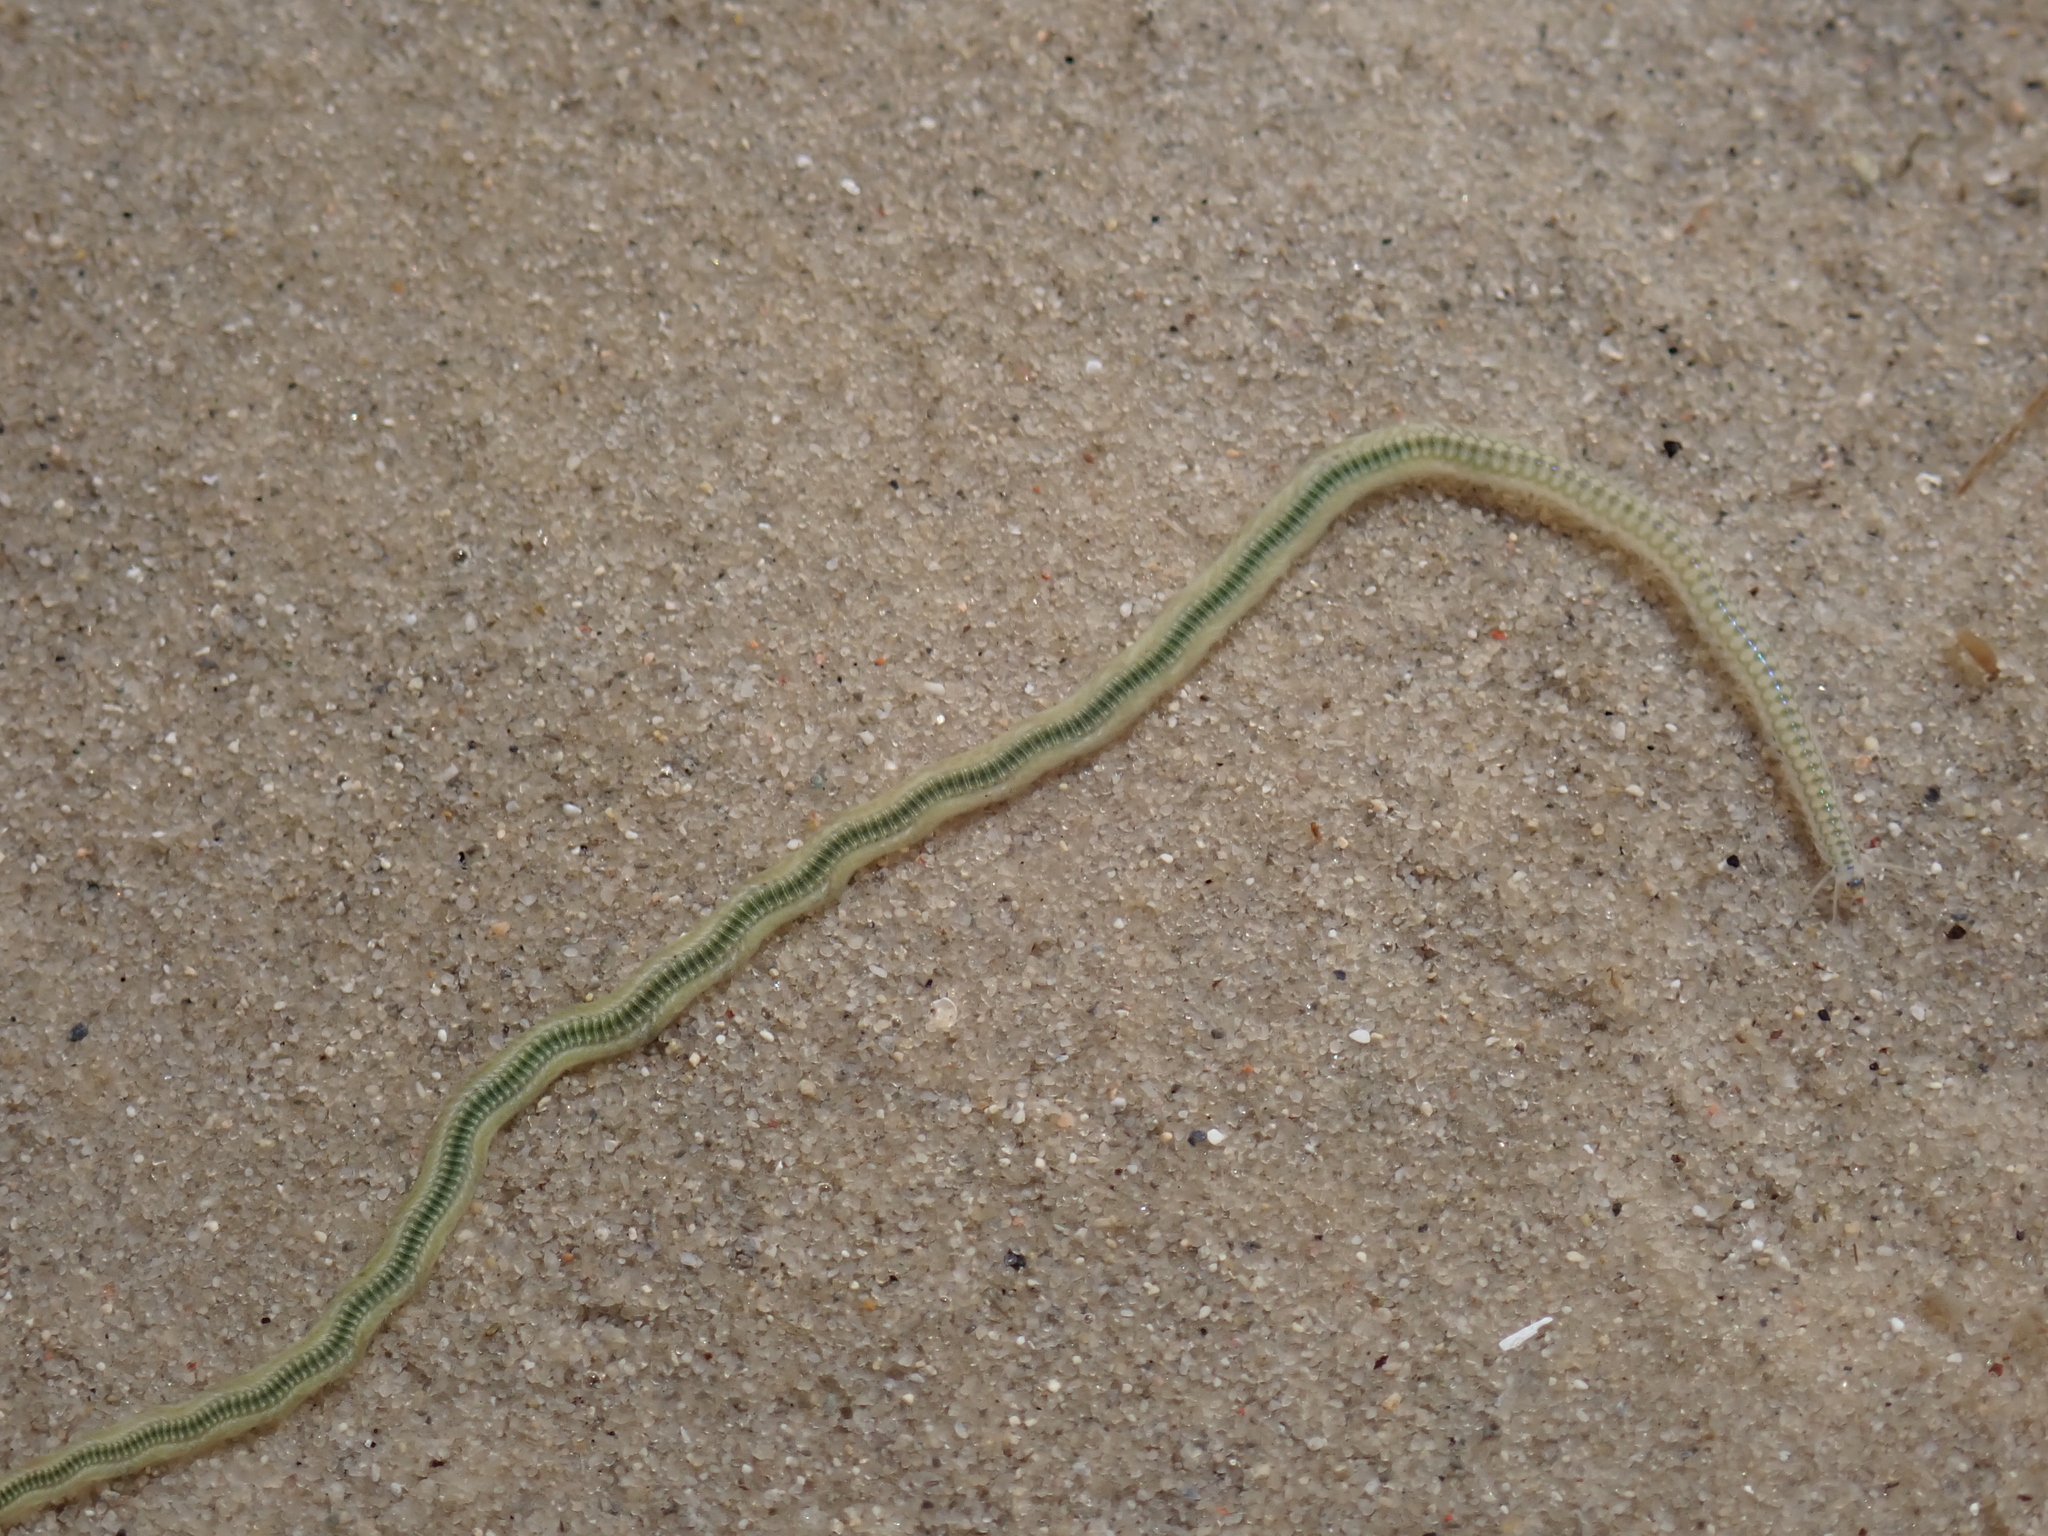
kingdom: Animalia
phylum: Annelida
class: Polychaeta
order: Phyllodocida
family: Phyllodocidae
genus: Phyllodoce
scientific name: Phyllodoce novaehollandiae
